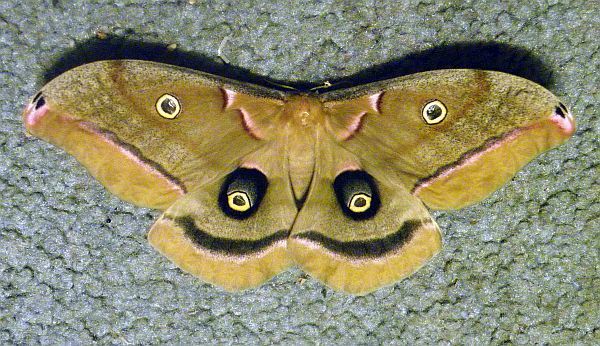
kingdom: Animalia
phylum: Arthropoda
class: Insecta
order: Lepidoptera
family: Saturniidae
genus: Antheraea
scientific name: Antheraea polyphemus
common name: Polyphemus moth
